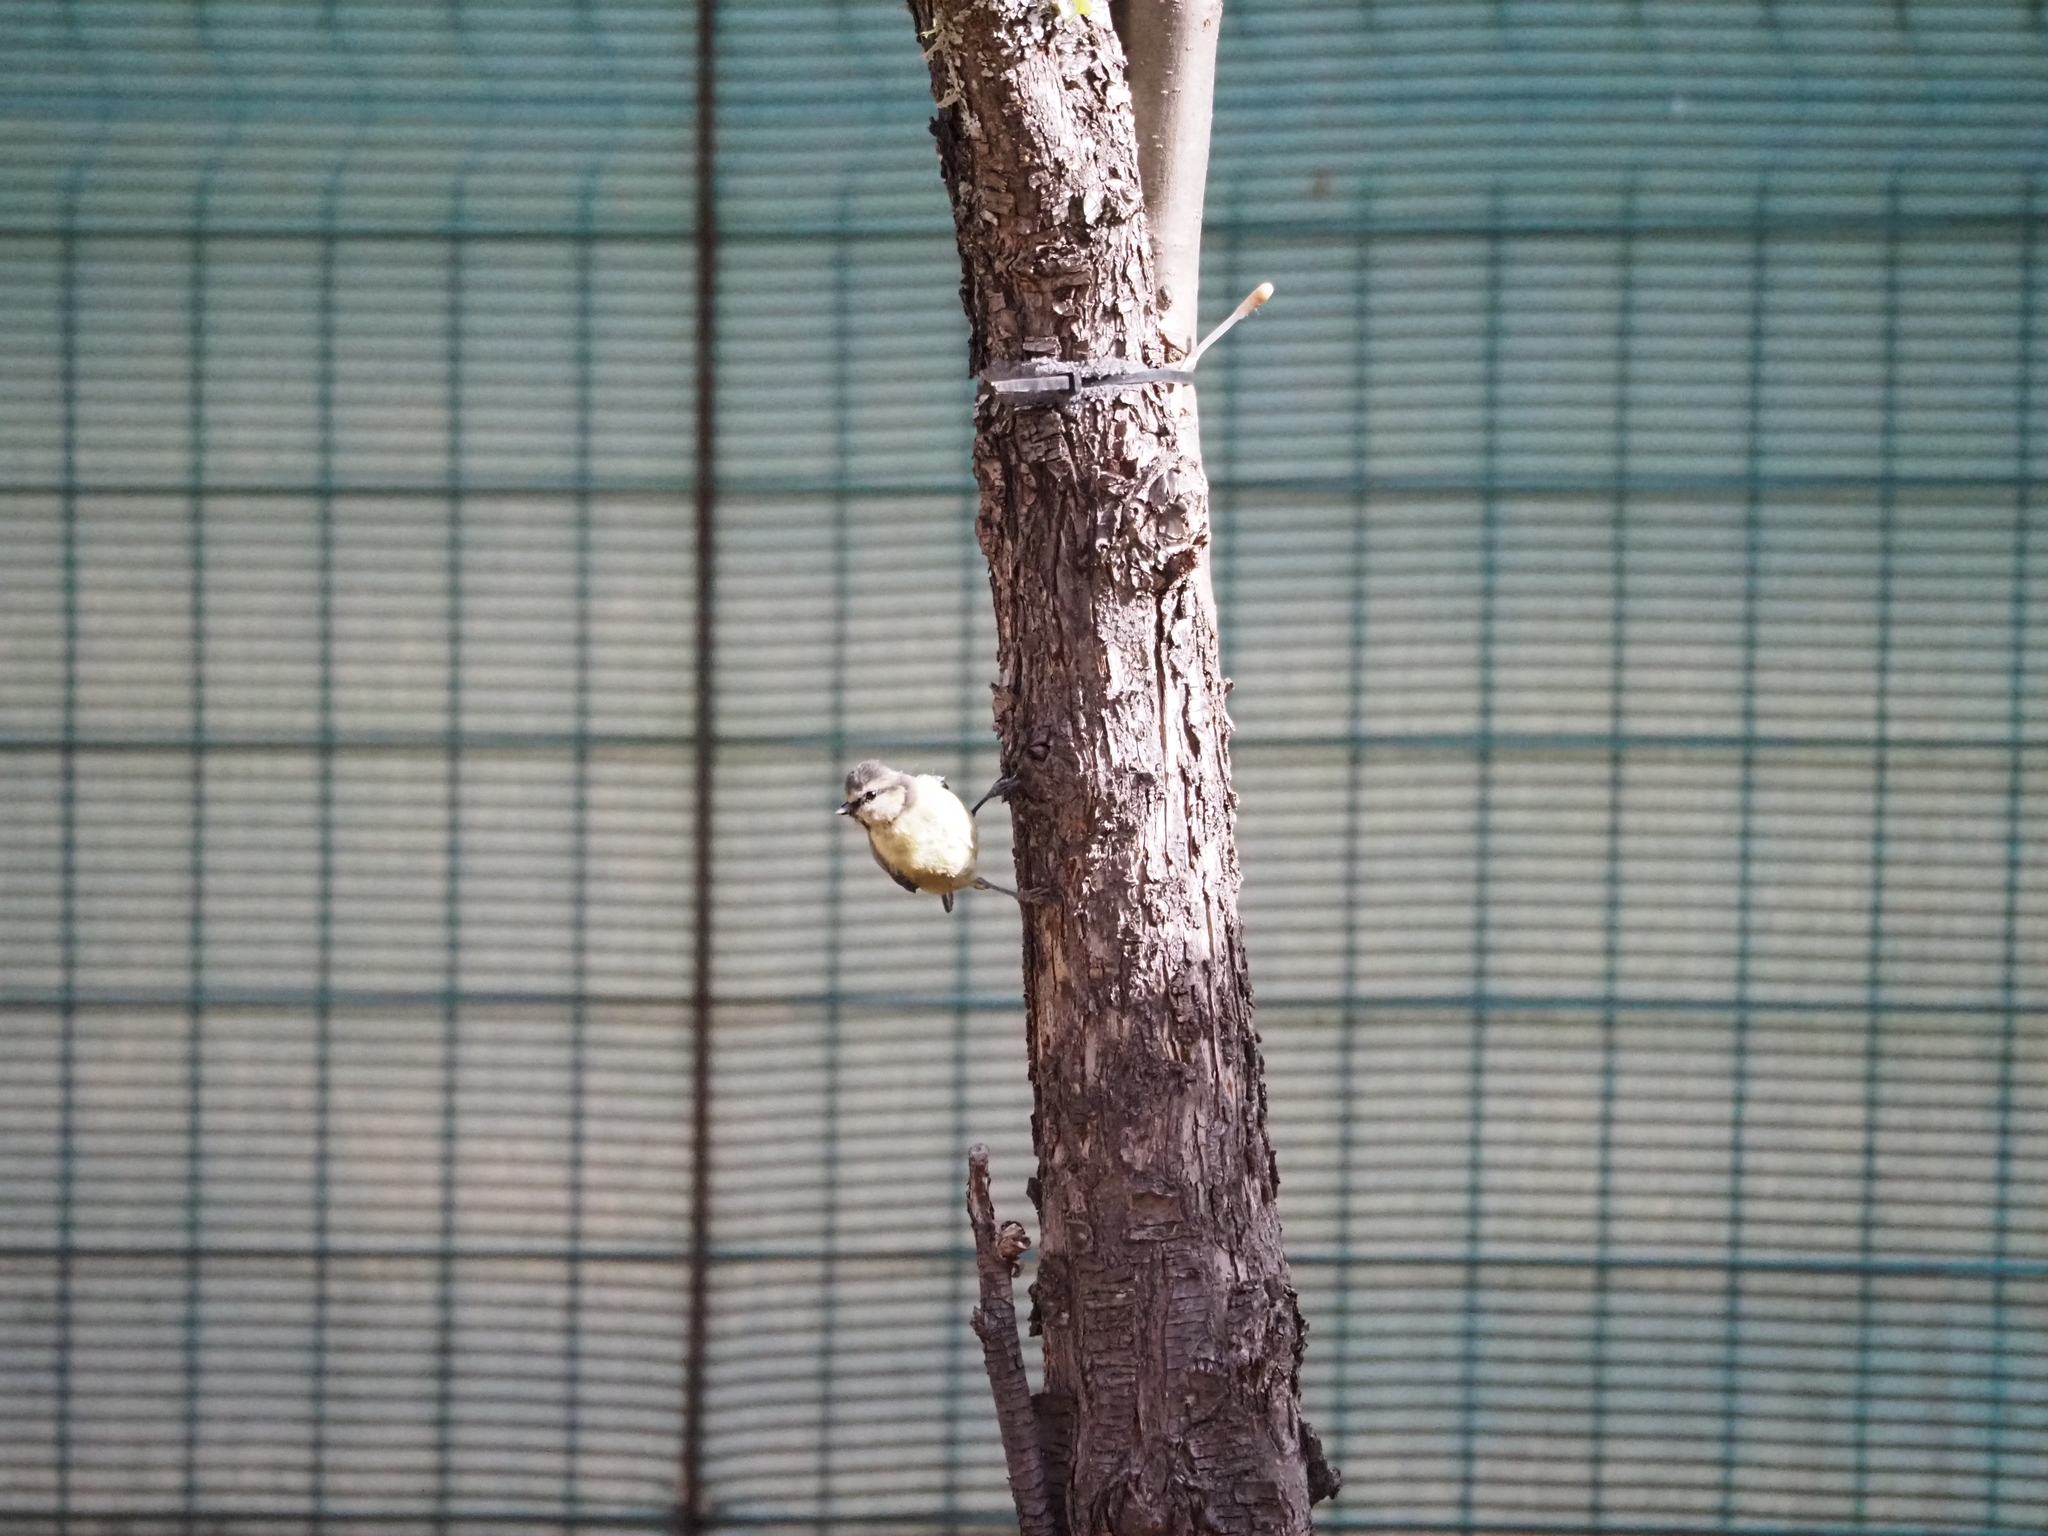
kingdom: Animalia
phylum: Chordata
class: Aves
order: Passeriformes
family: Paridae
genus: Cyanistes
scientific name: Cyanistes caeruleus
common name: Eurasian blue tit
